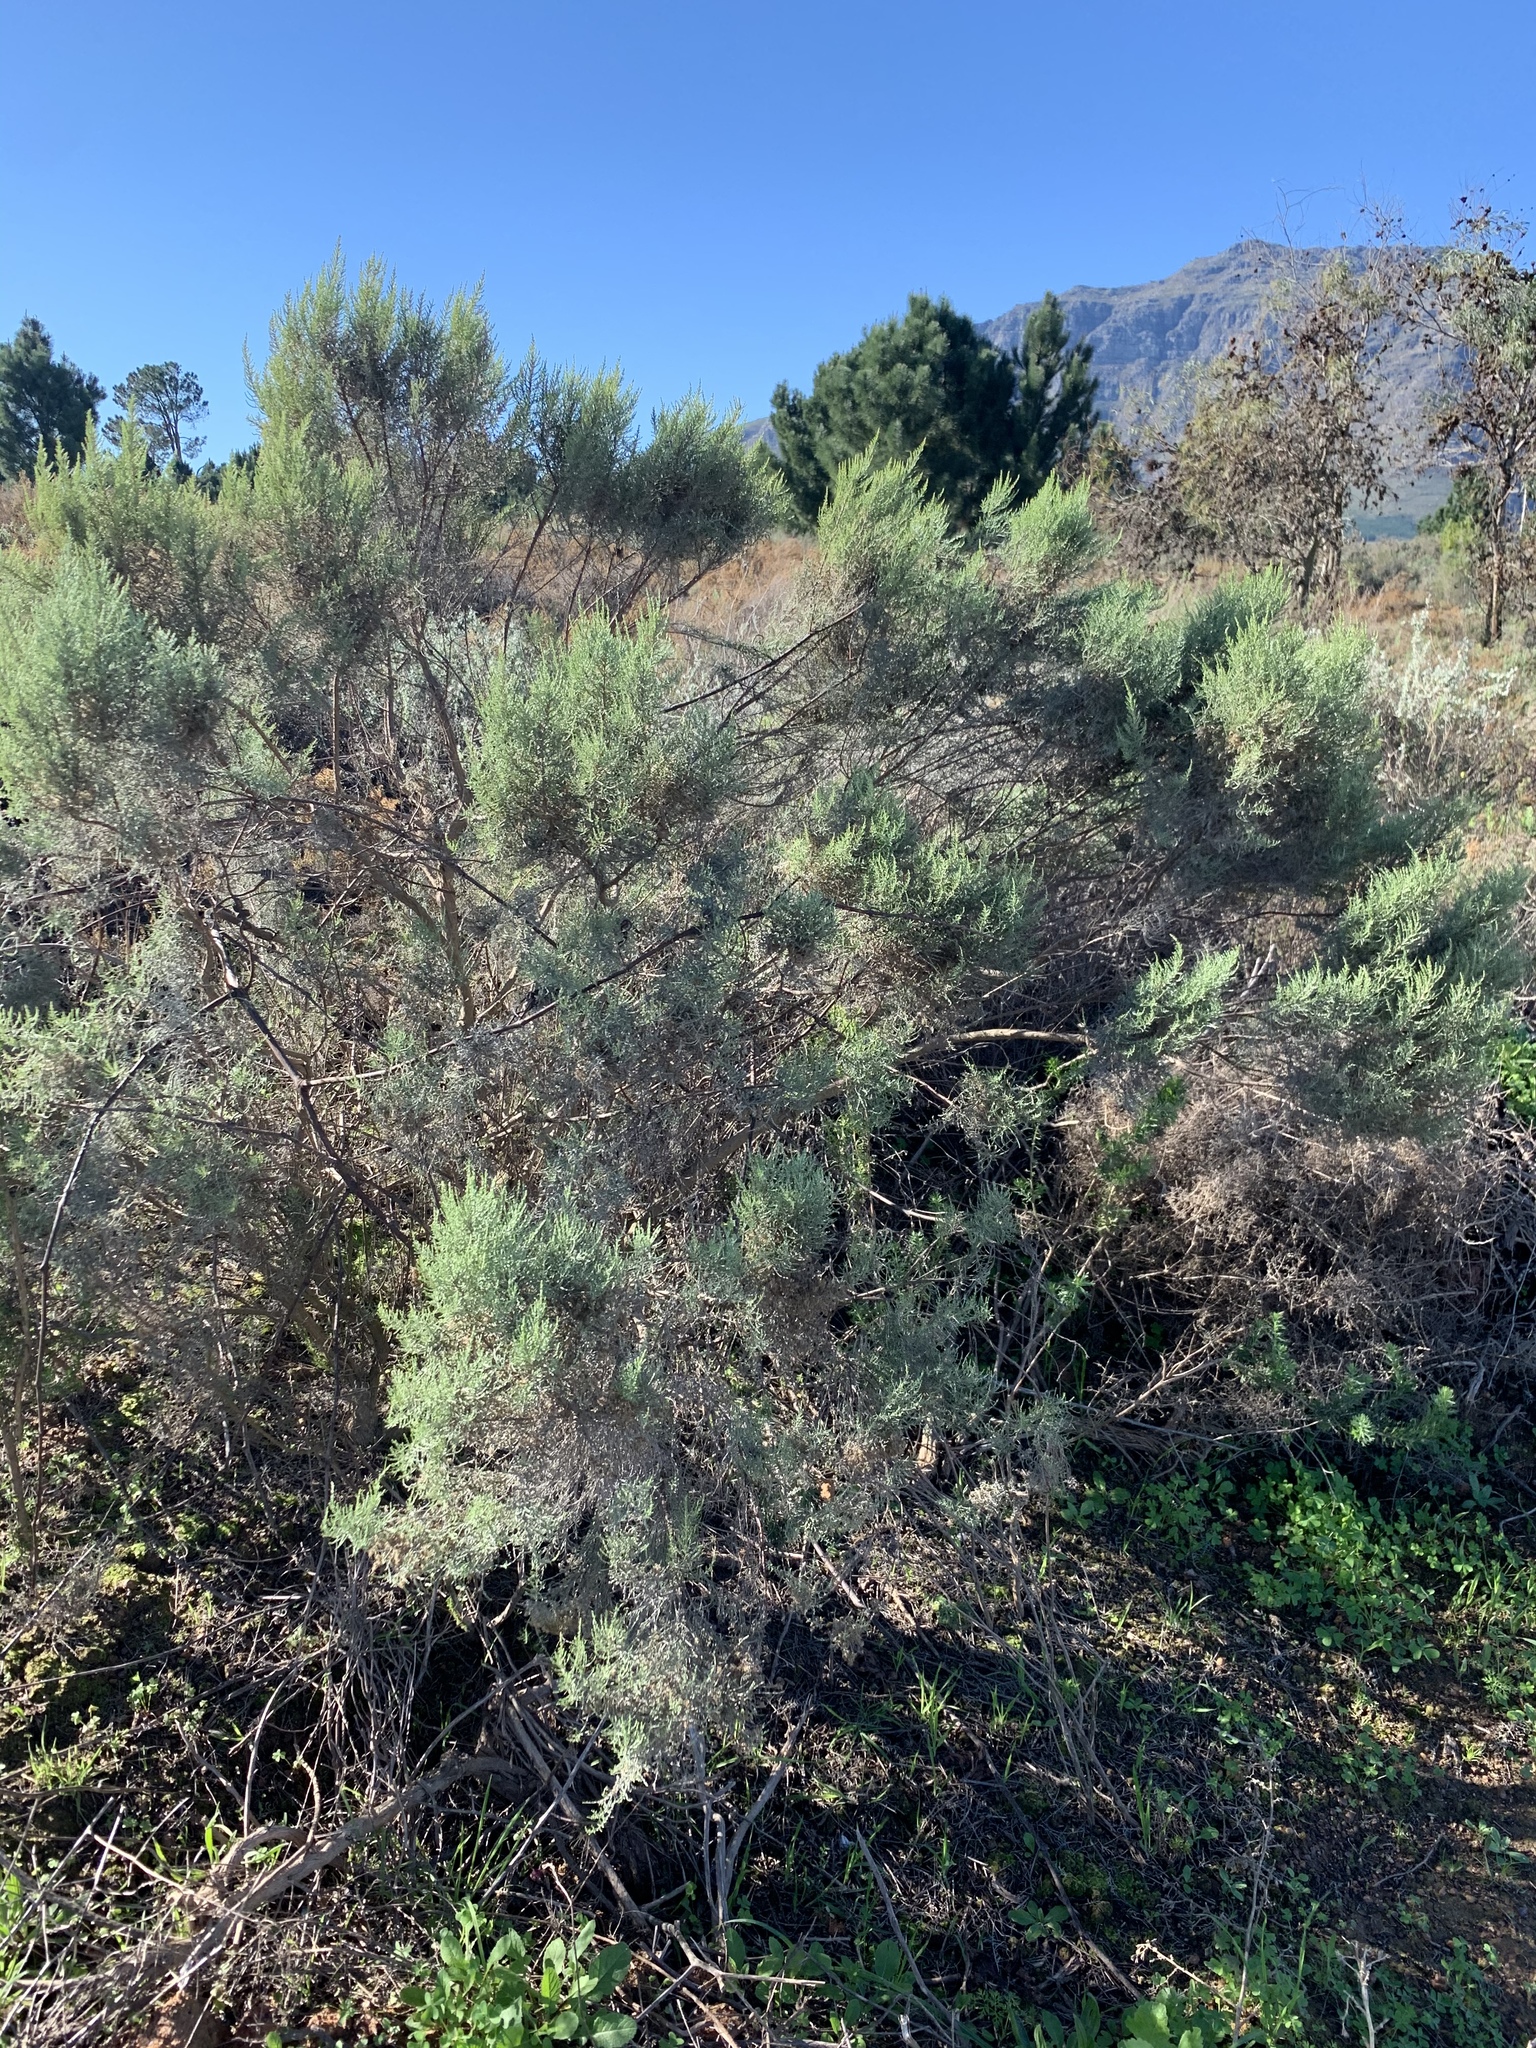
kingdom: Plantae
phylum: Tracheophyta
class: Magnoliopsida
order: Asterales
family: Asteraceae
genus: Dicerothamnus
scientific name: Dicerothamnus rhinocerotis
